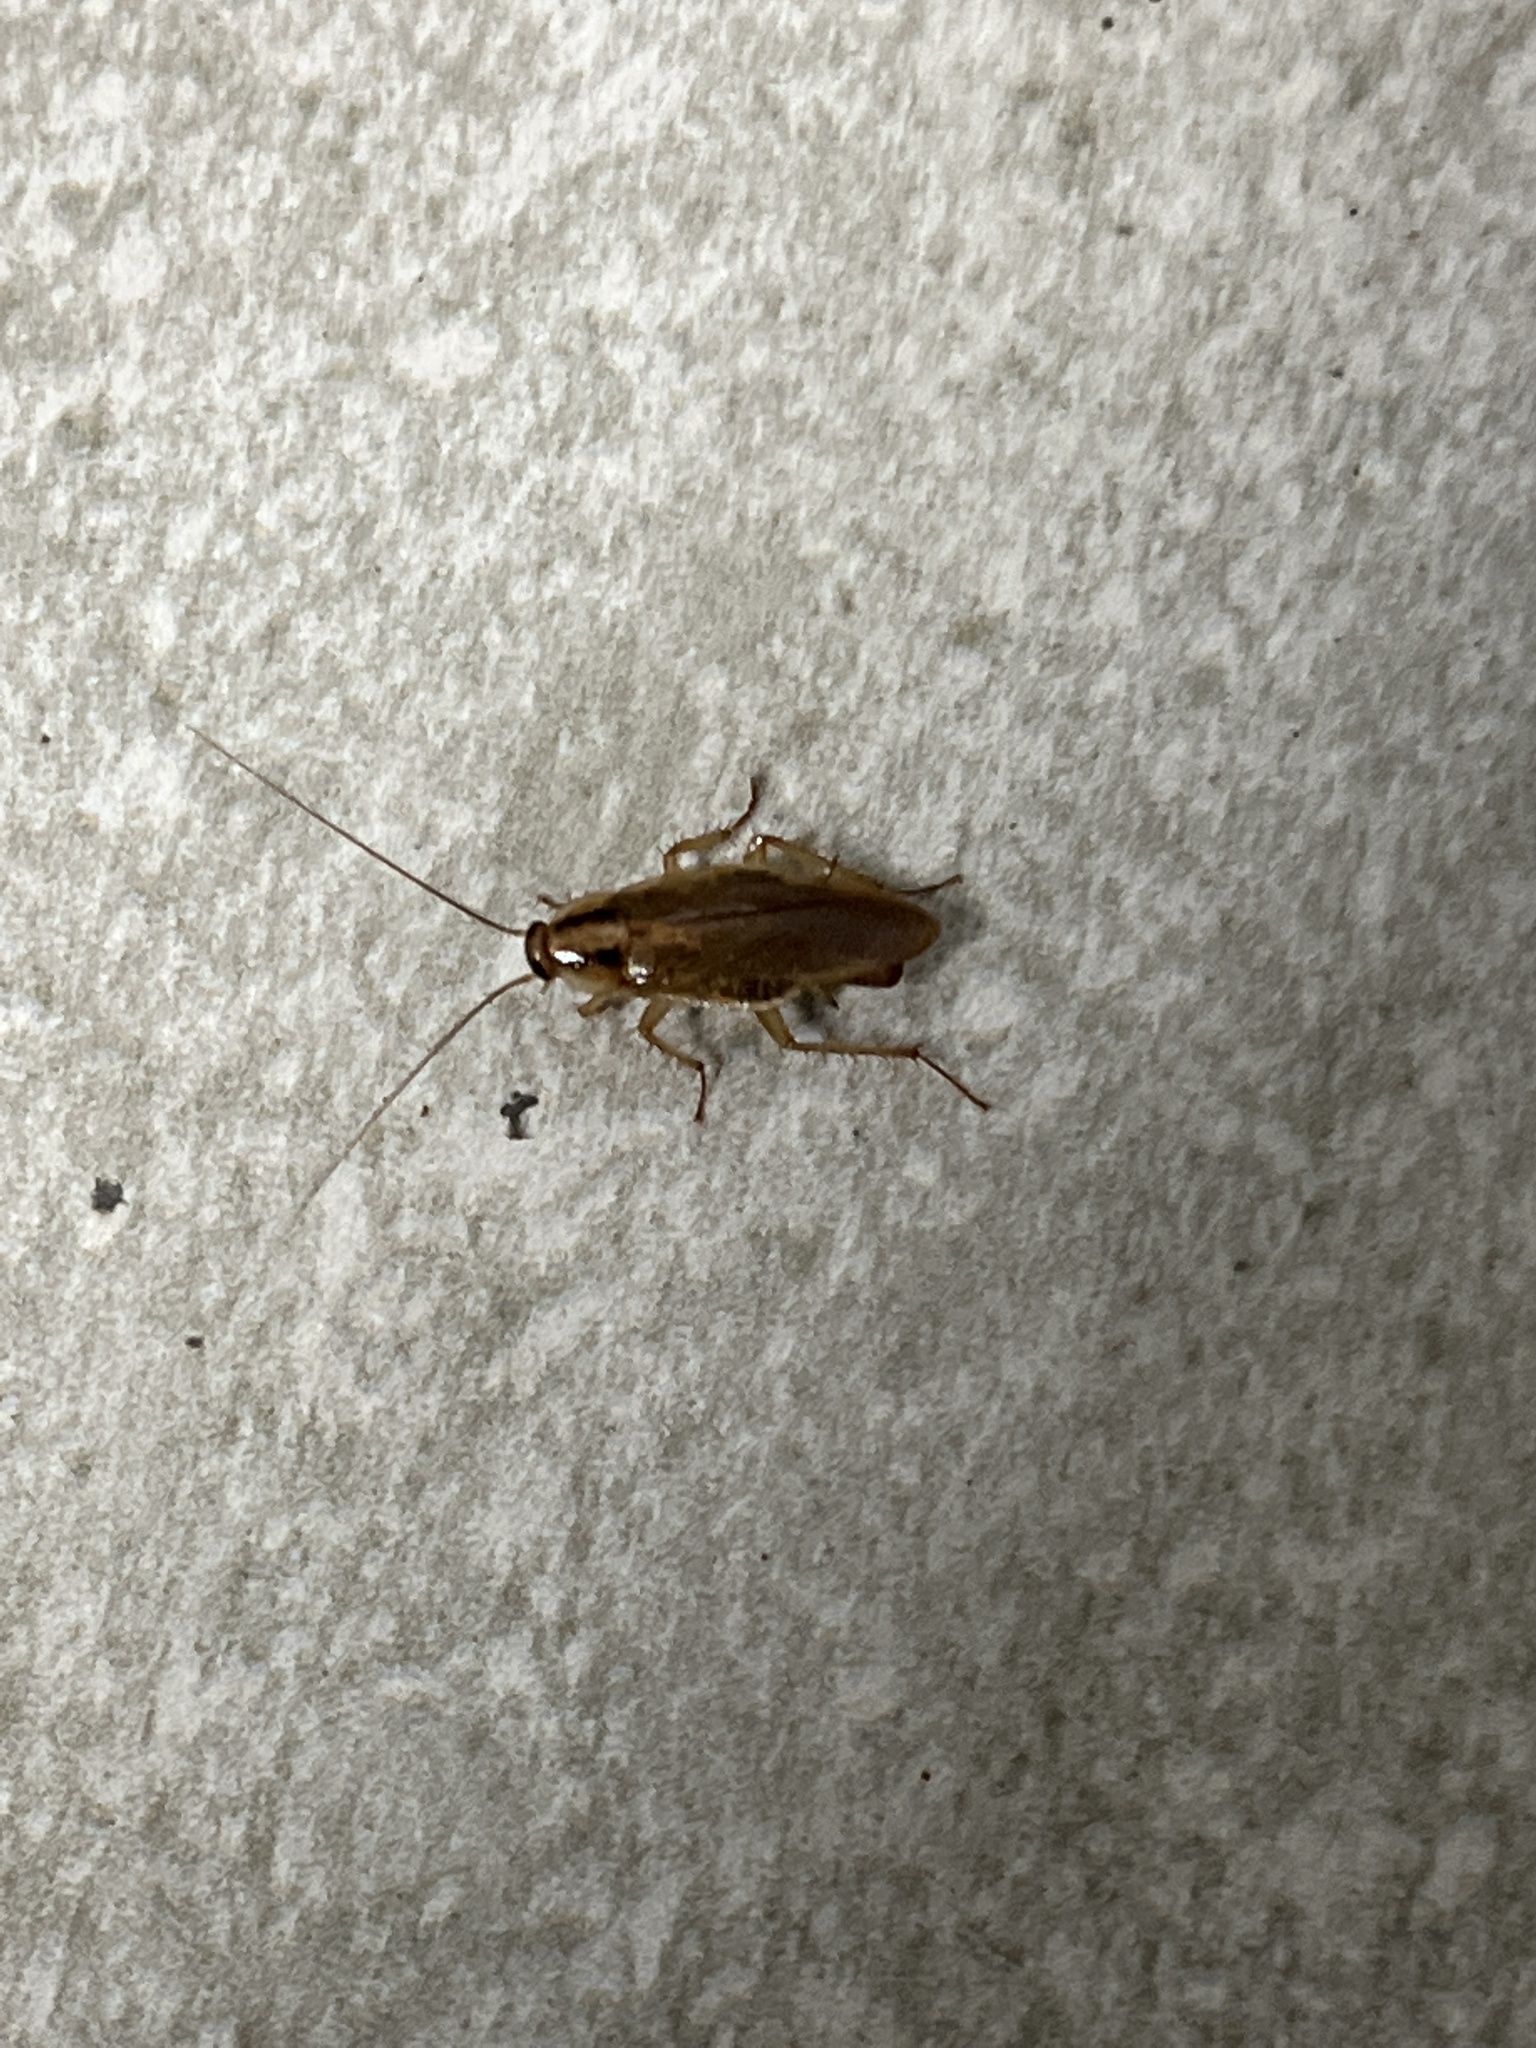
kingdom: Animalia
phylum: Arthropoda
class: Insecta
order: Blattodea
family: Ectobiidae
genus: Blattella
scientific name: Blattella germanica
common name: German cockroach
